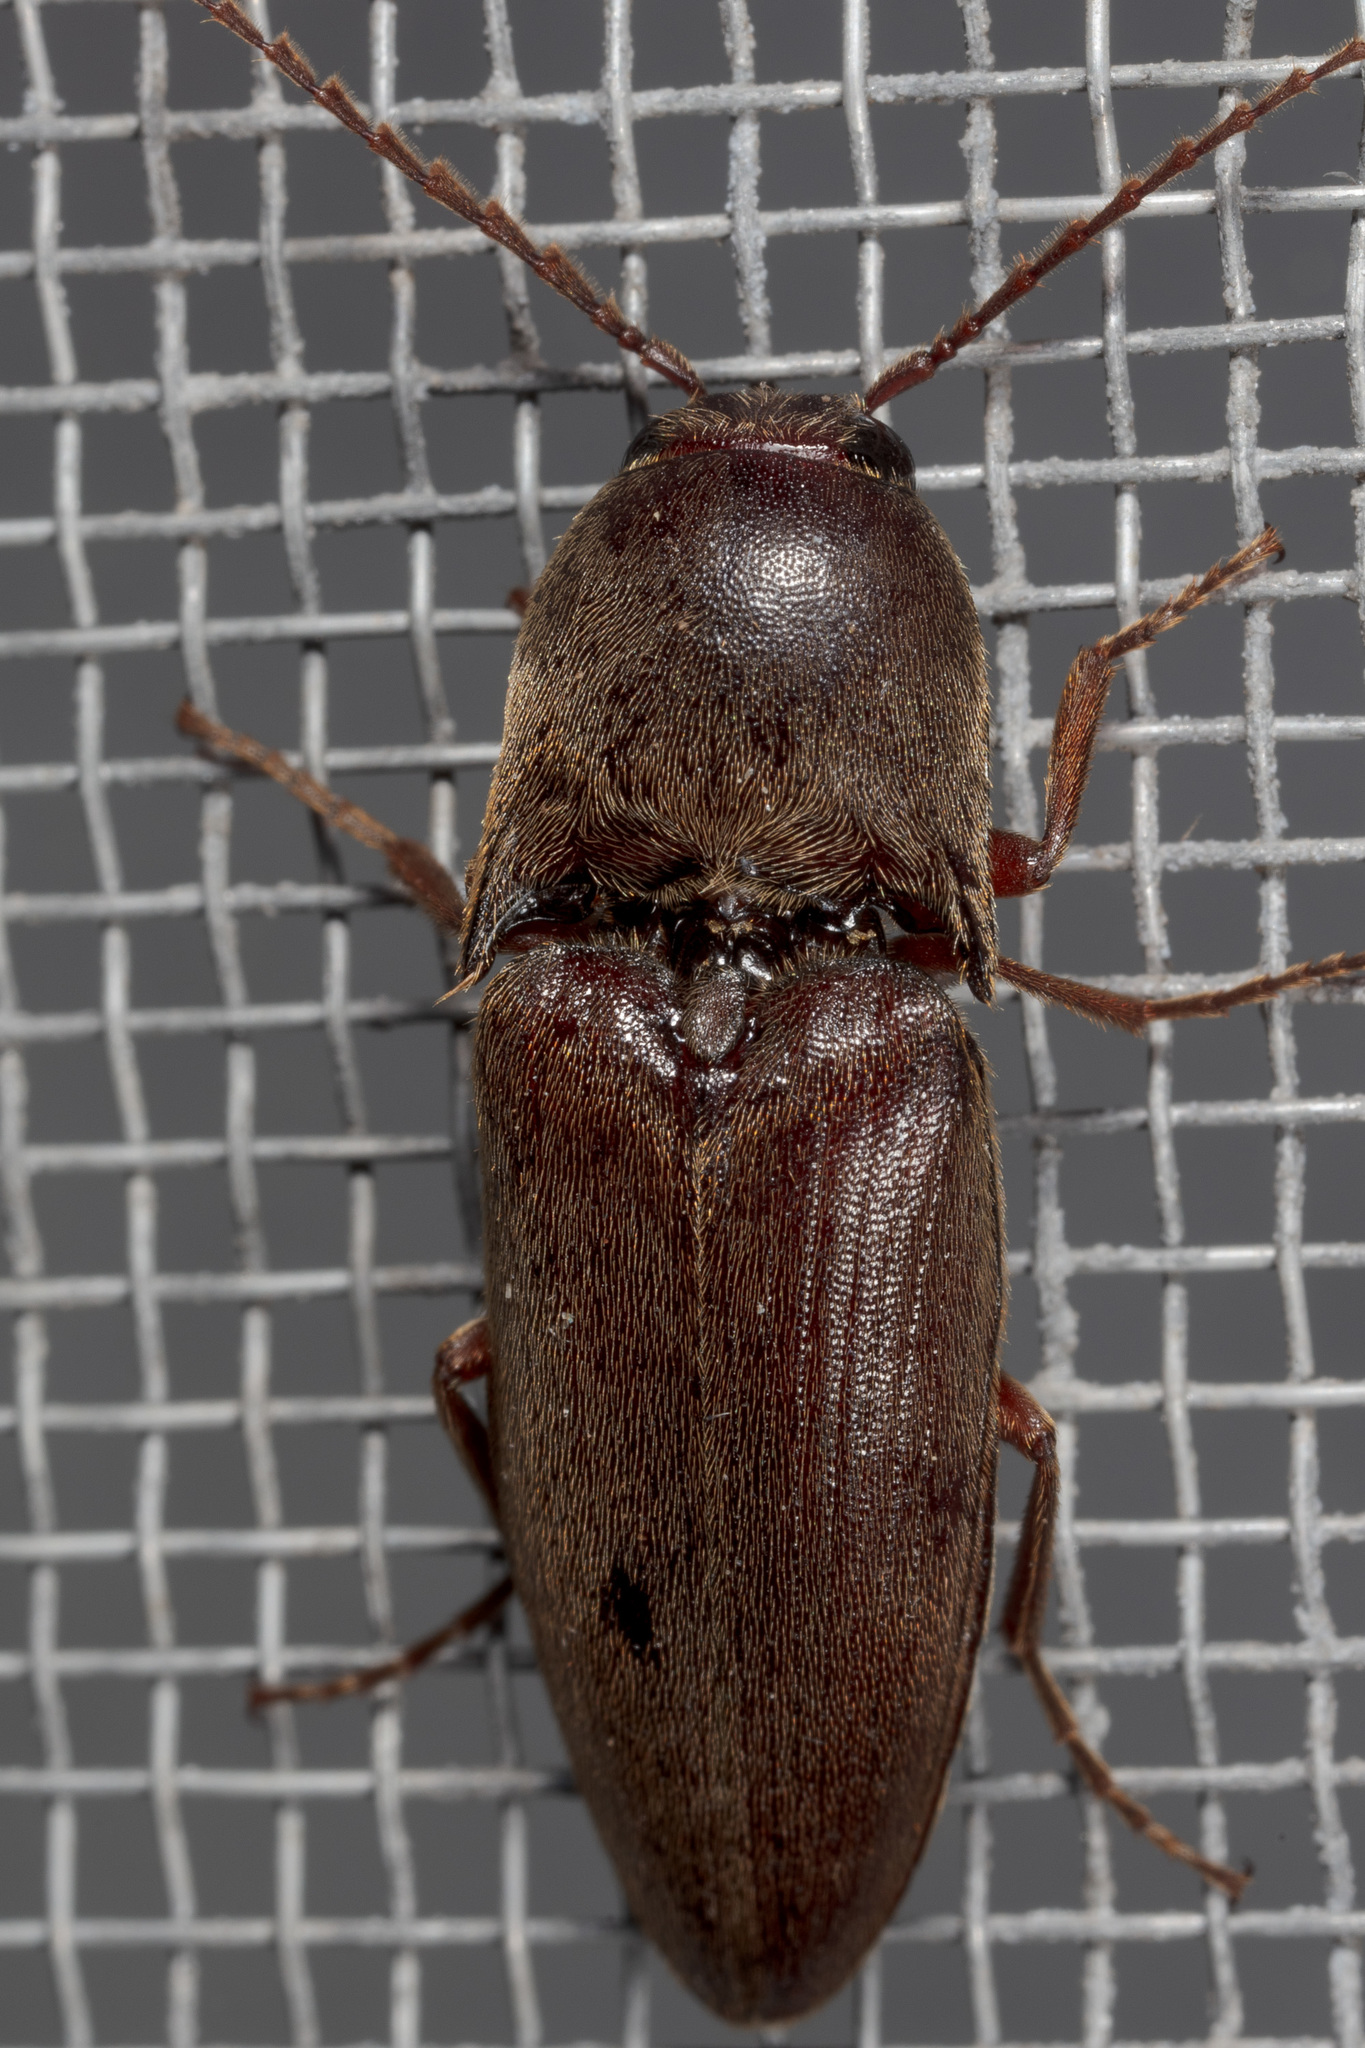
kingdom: Animalia
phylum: Arthropoda
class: Insecta
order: Coleoptera
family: Elateridae
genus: Diplostethus
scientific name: Diplostethus
